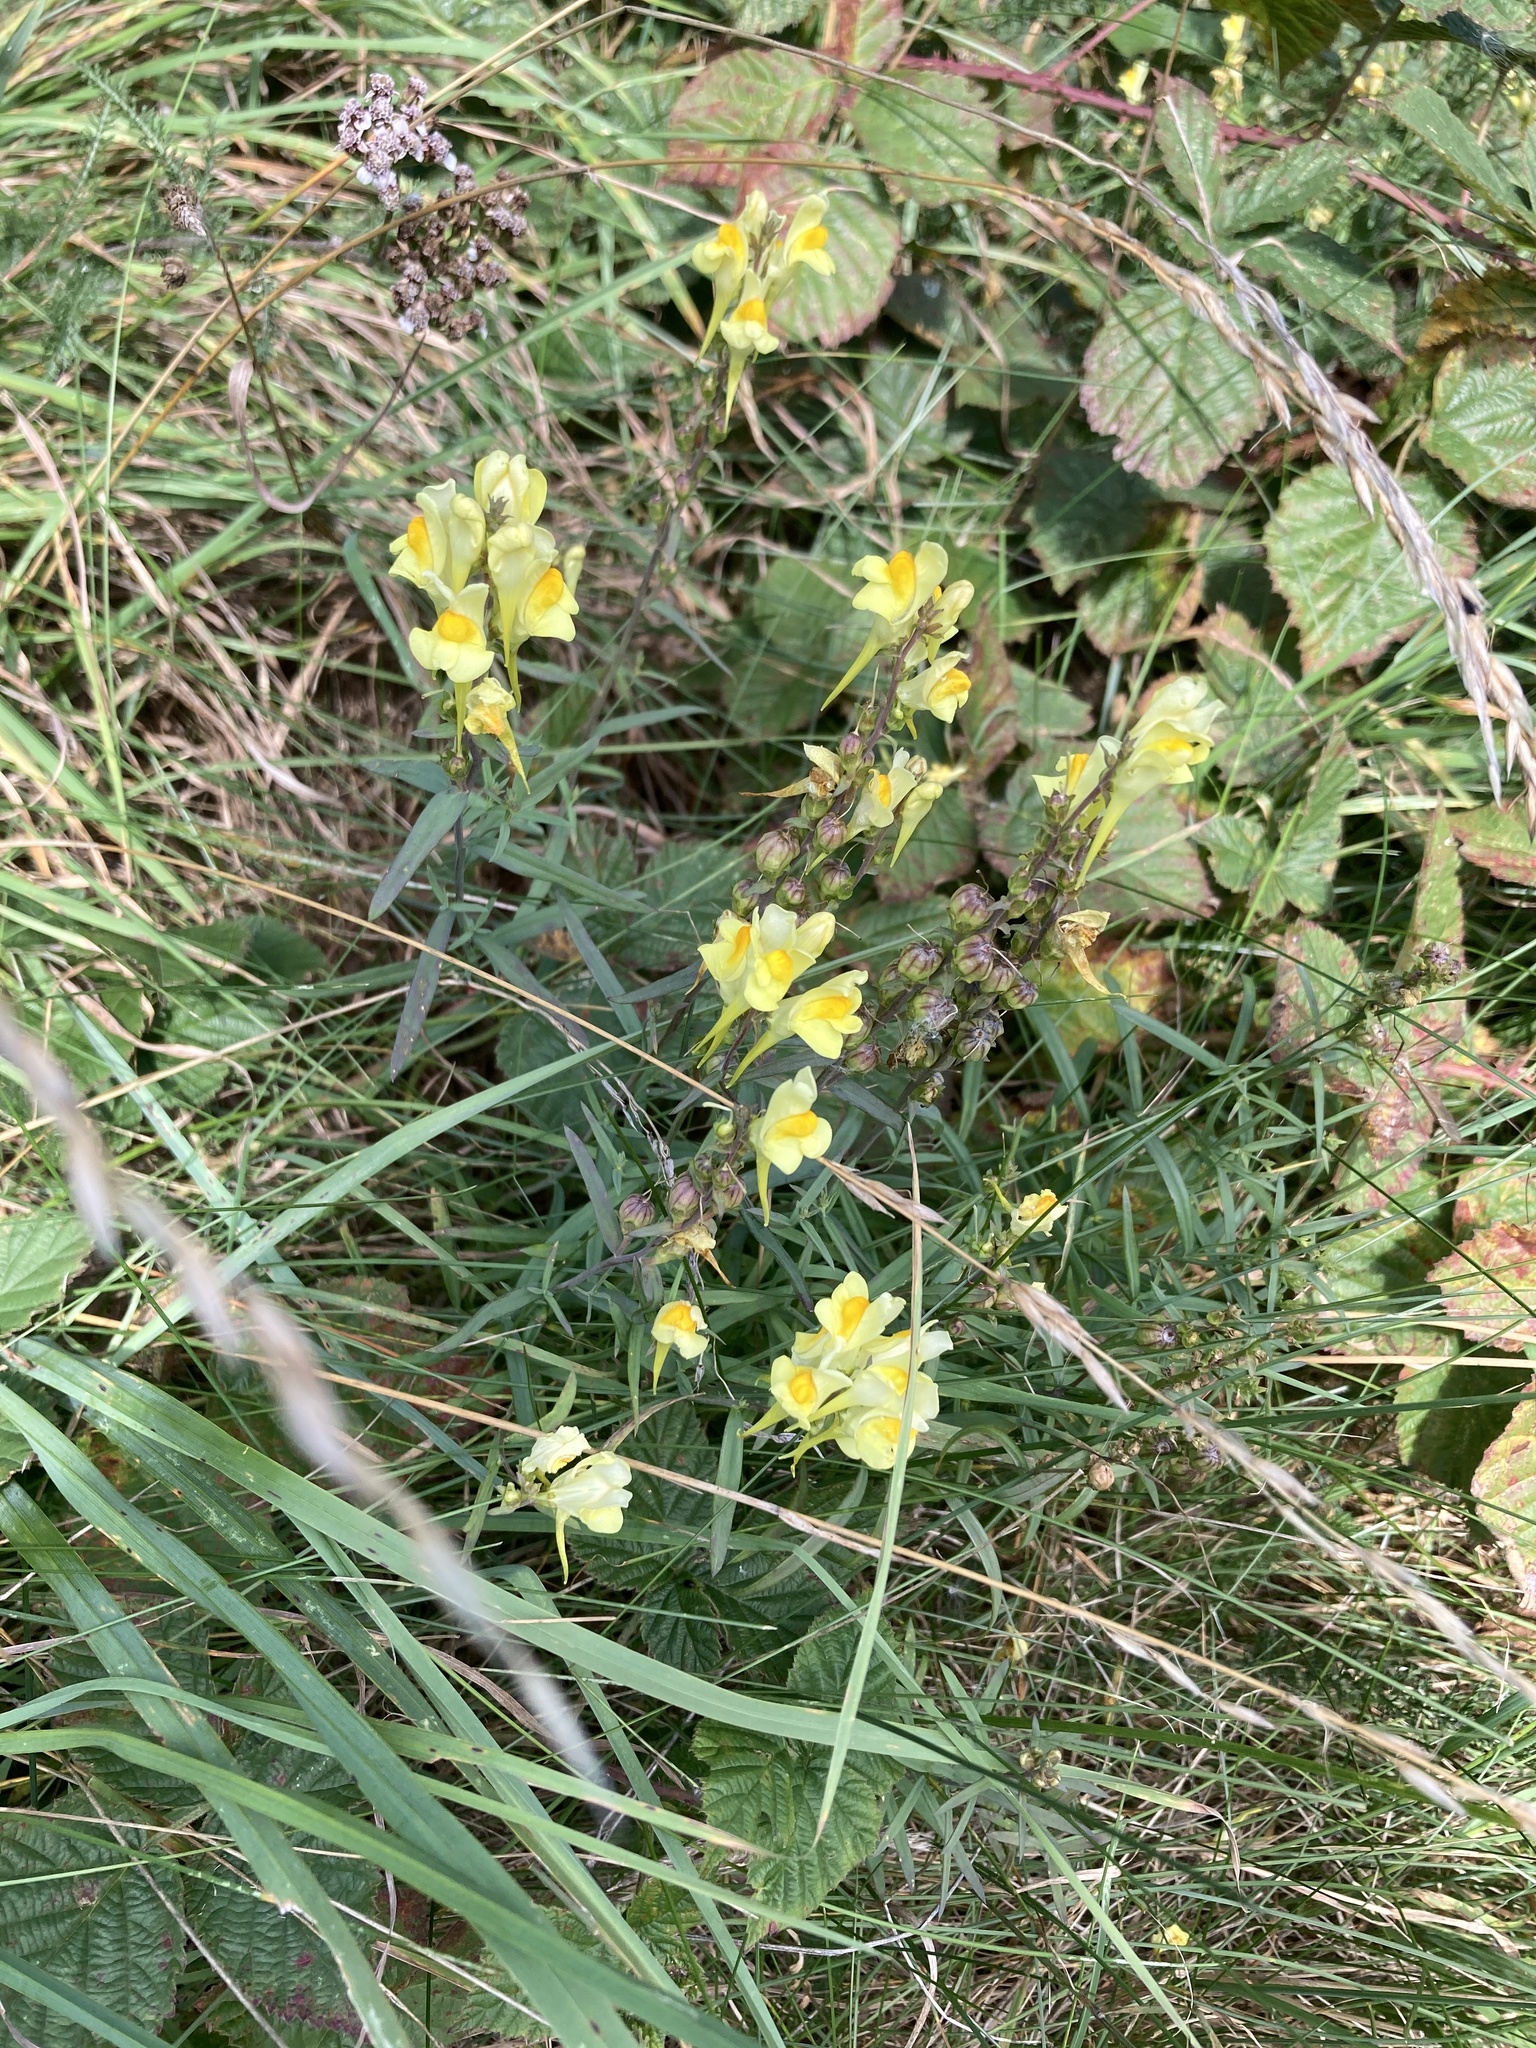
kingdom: Plantae
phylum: Tracheophyta
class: Magnoliopsida
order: Lamiales
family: Plantaginaceae
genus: Linaria
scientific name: Linaria vulgaris
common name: Butter and eggs
